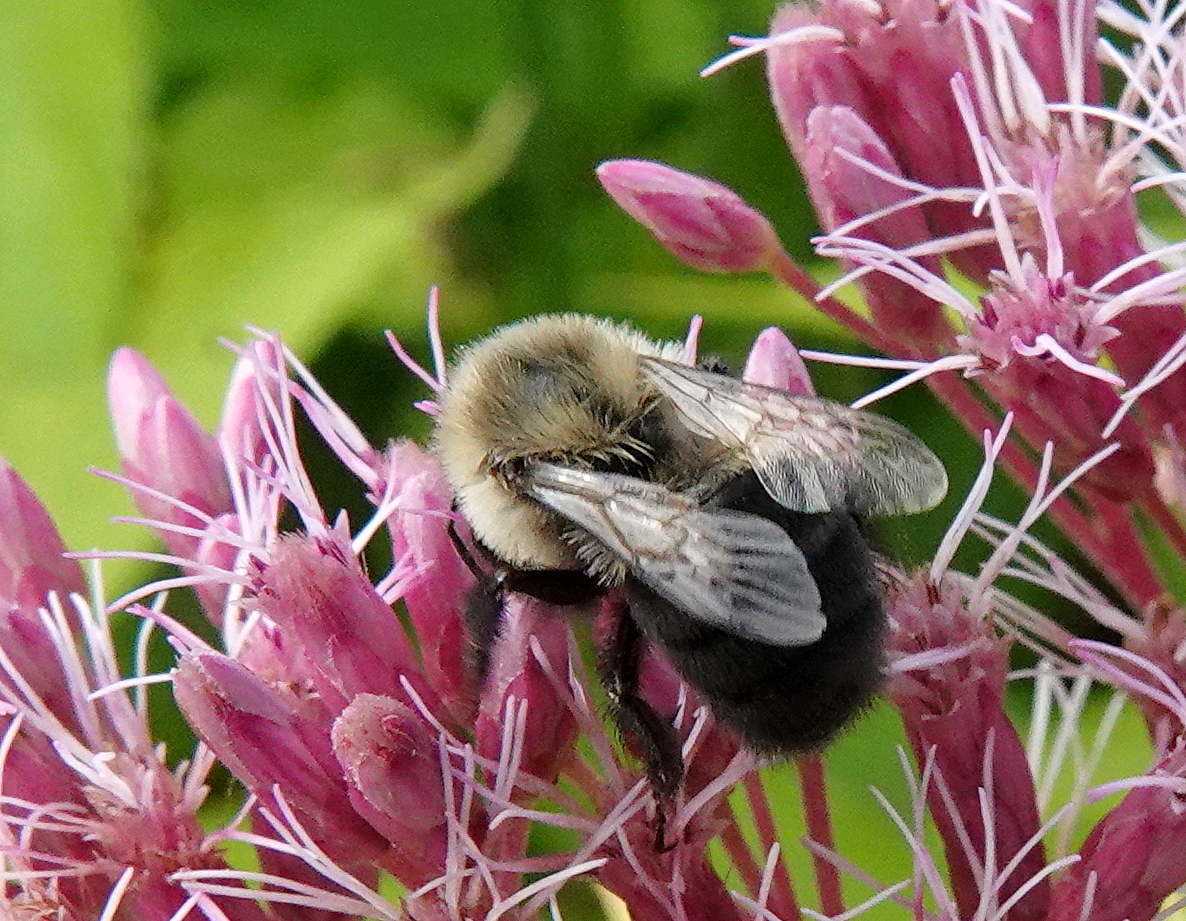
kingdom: Animalia
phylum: Arthropoda
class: Insecta
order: Hymenoptera
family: Apidae
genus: Bombus
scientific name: Bombus impatiens
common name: Common eastern bumble bee
